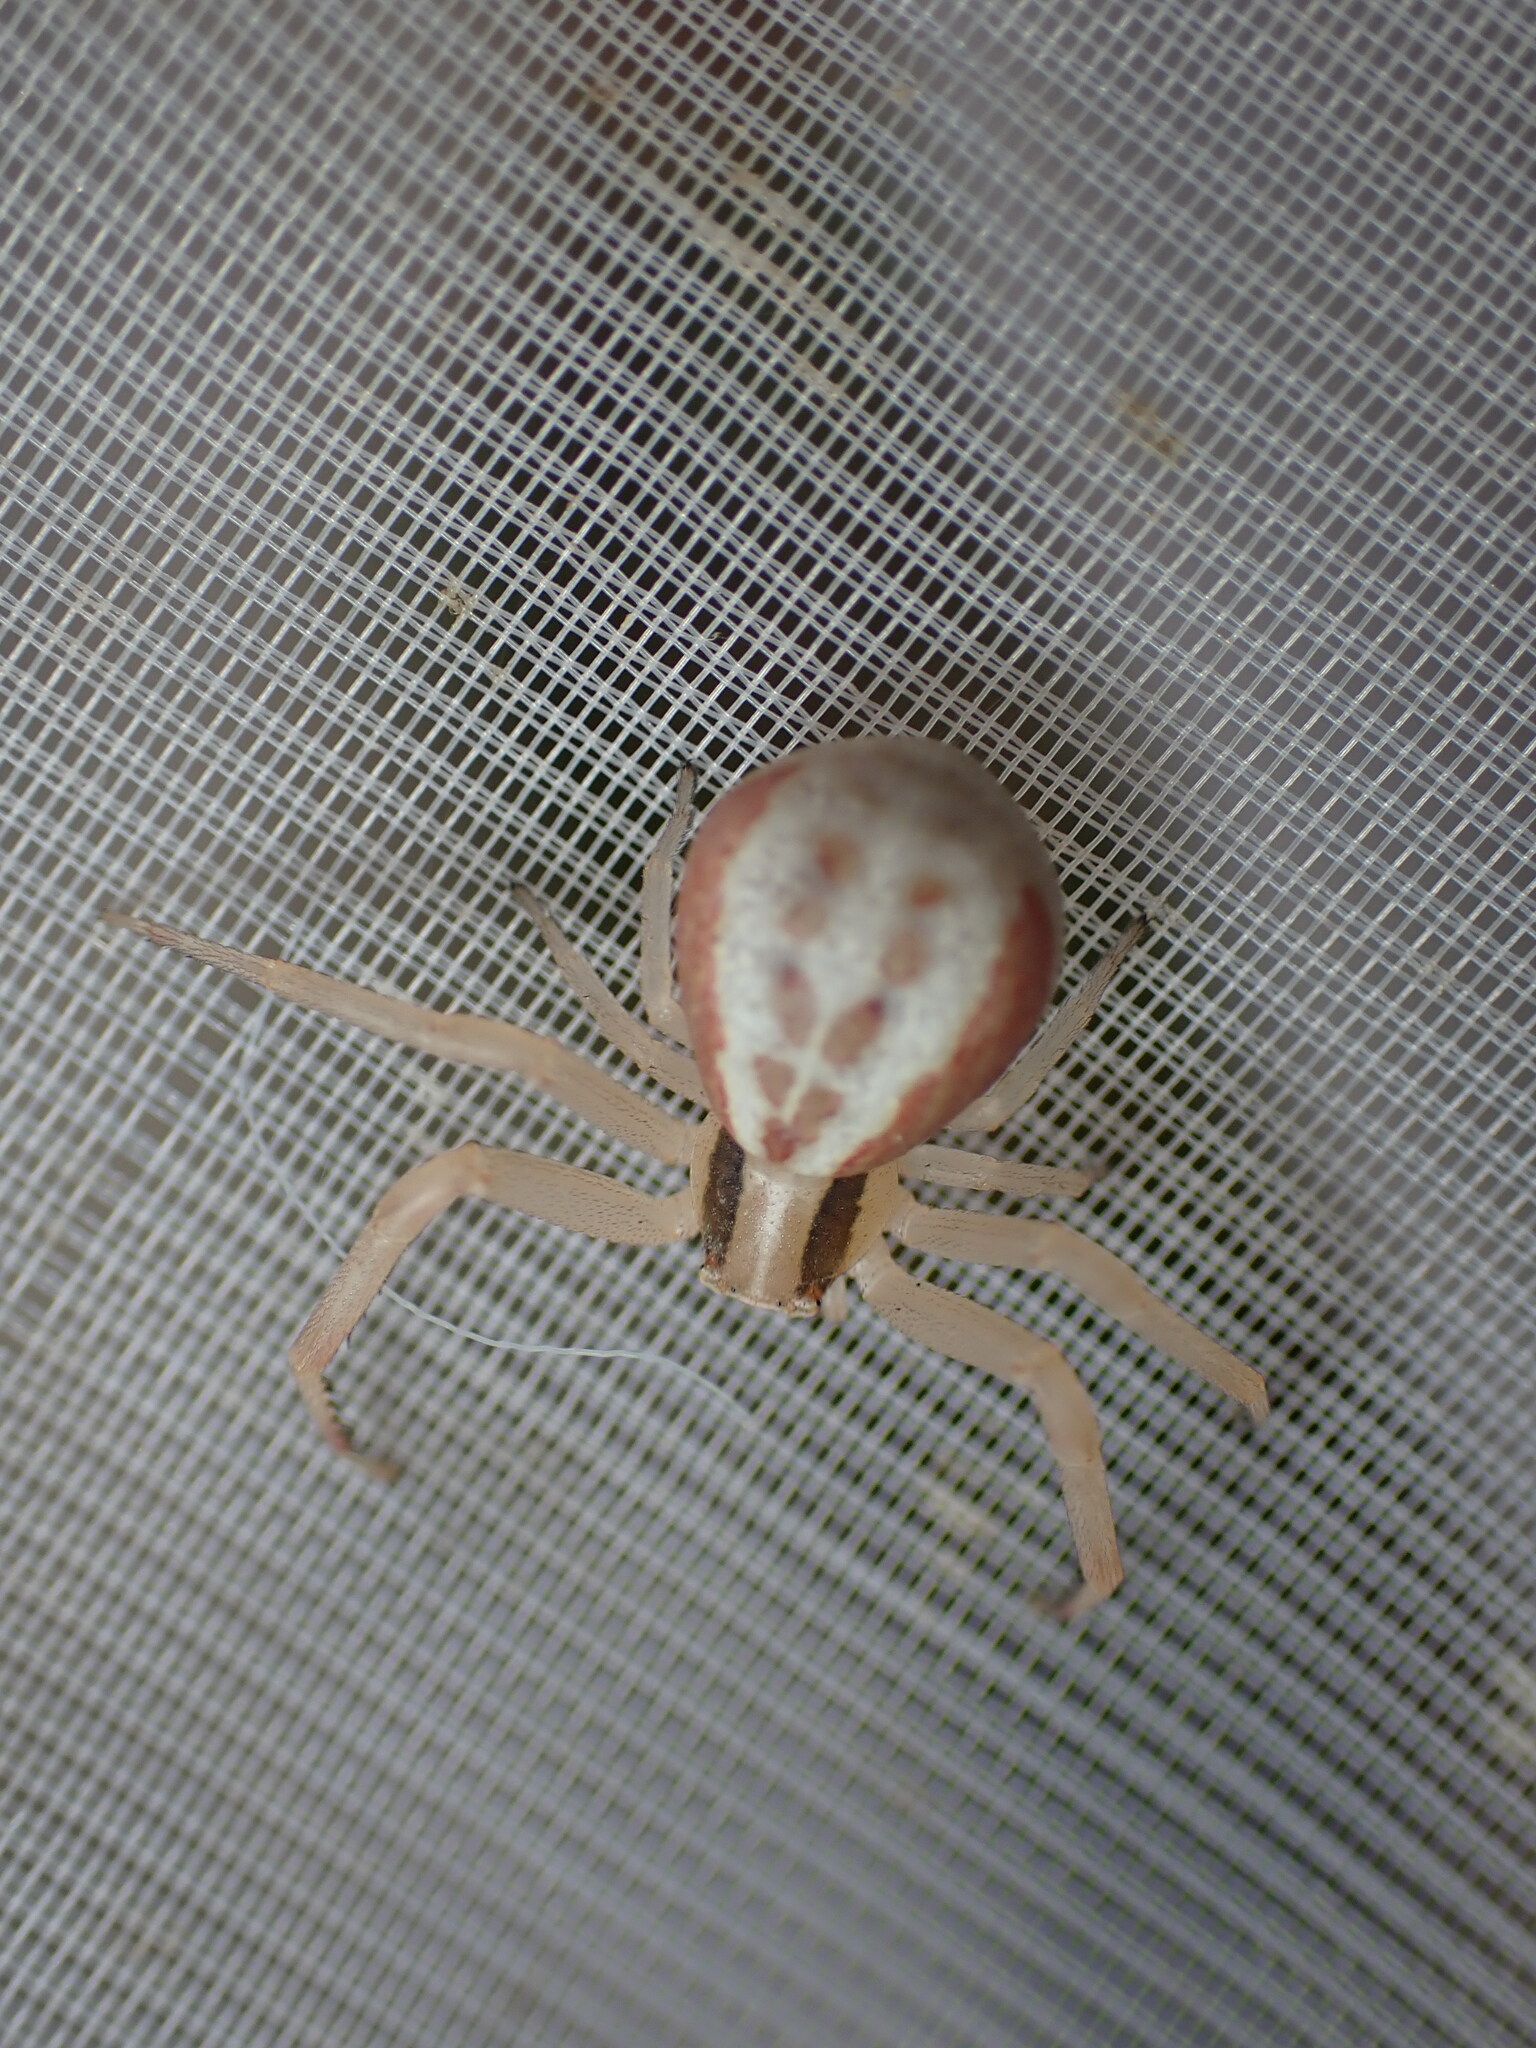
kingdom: Animalia
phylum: Arthropoda
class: Arachnida
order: Araneae
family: Thomisidae
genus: Runcinia
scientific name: Runcinia grammica
